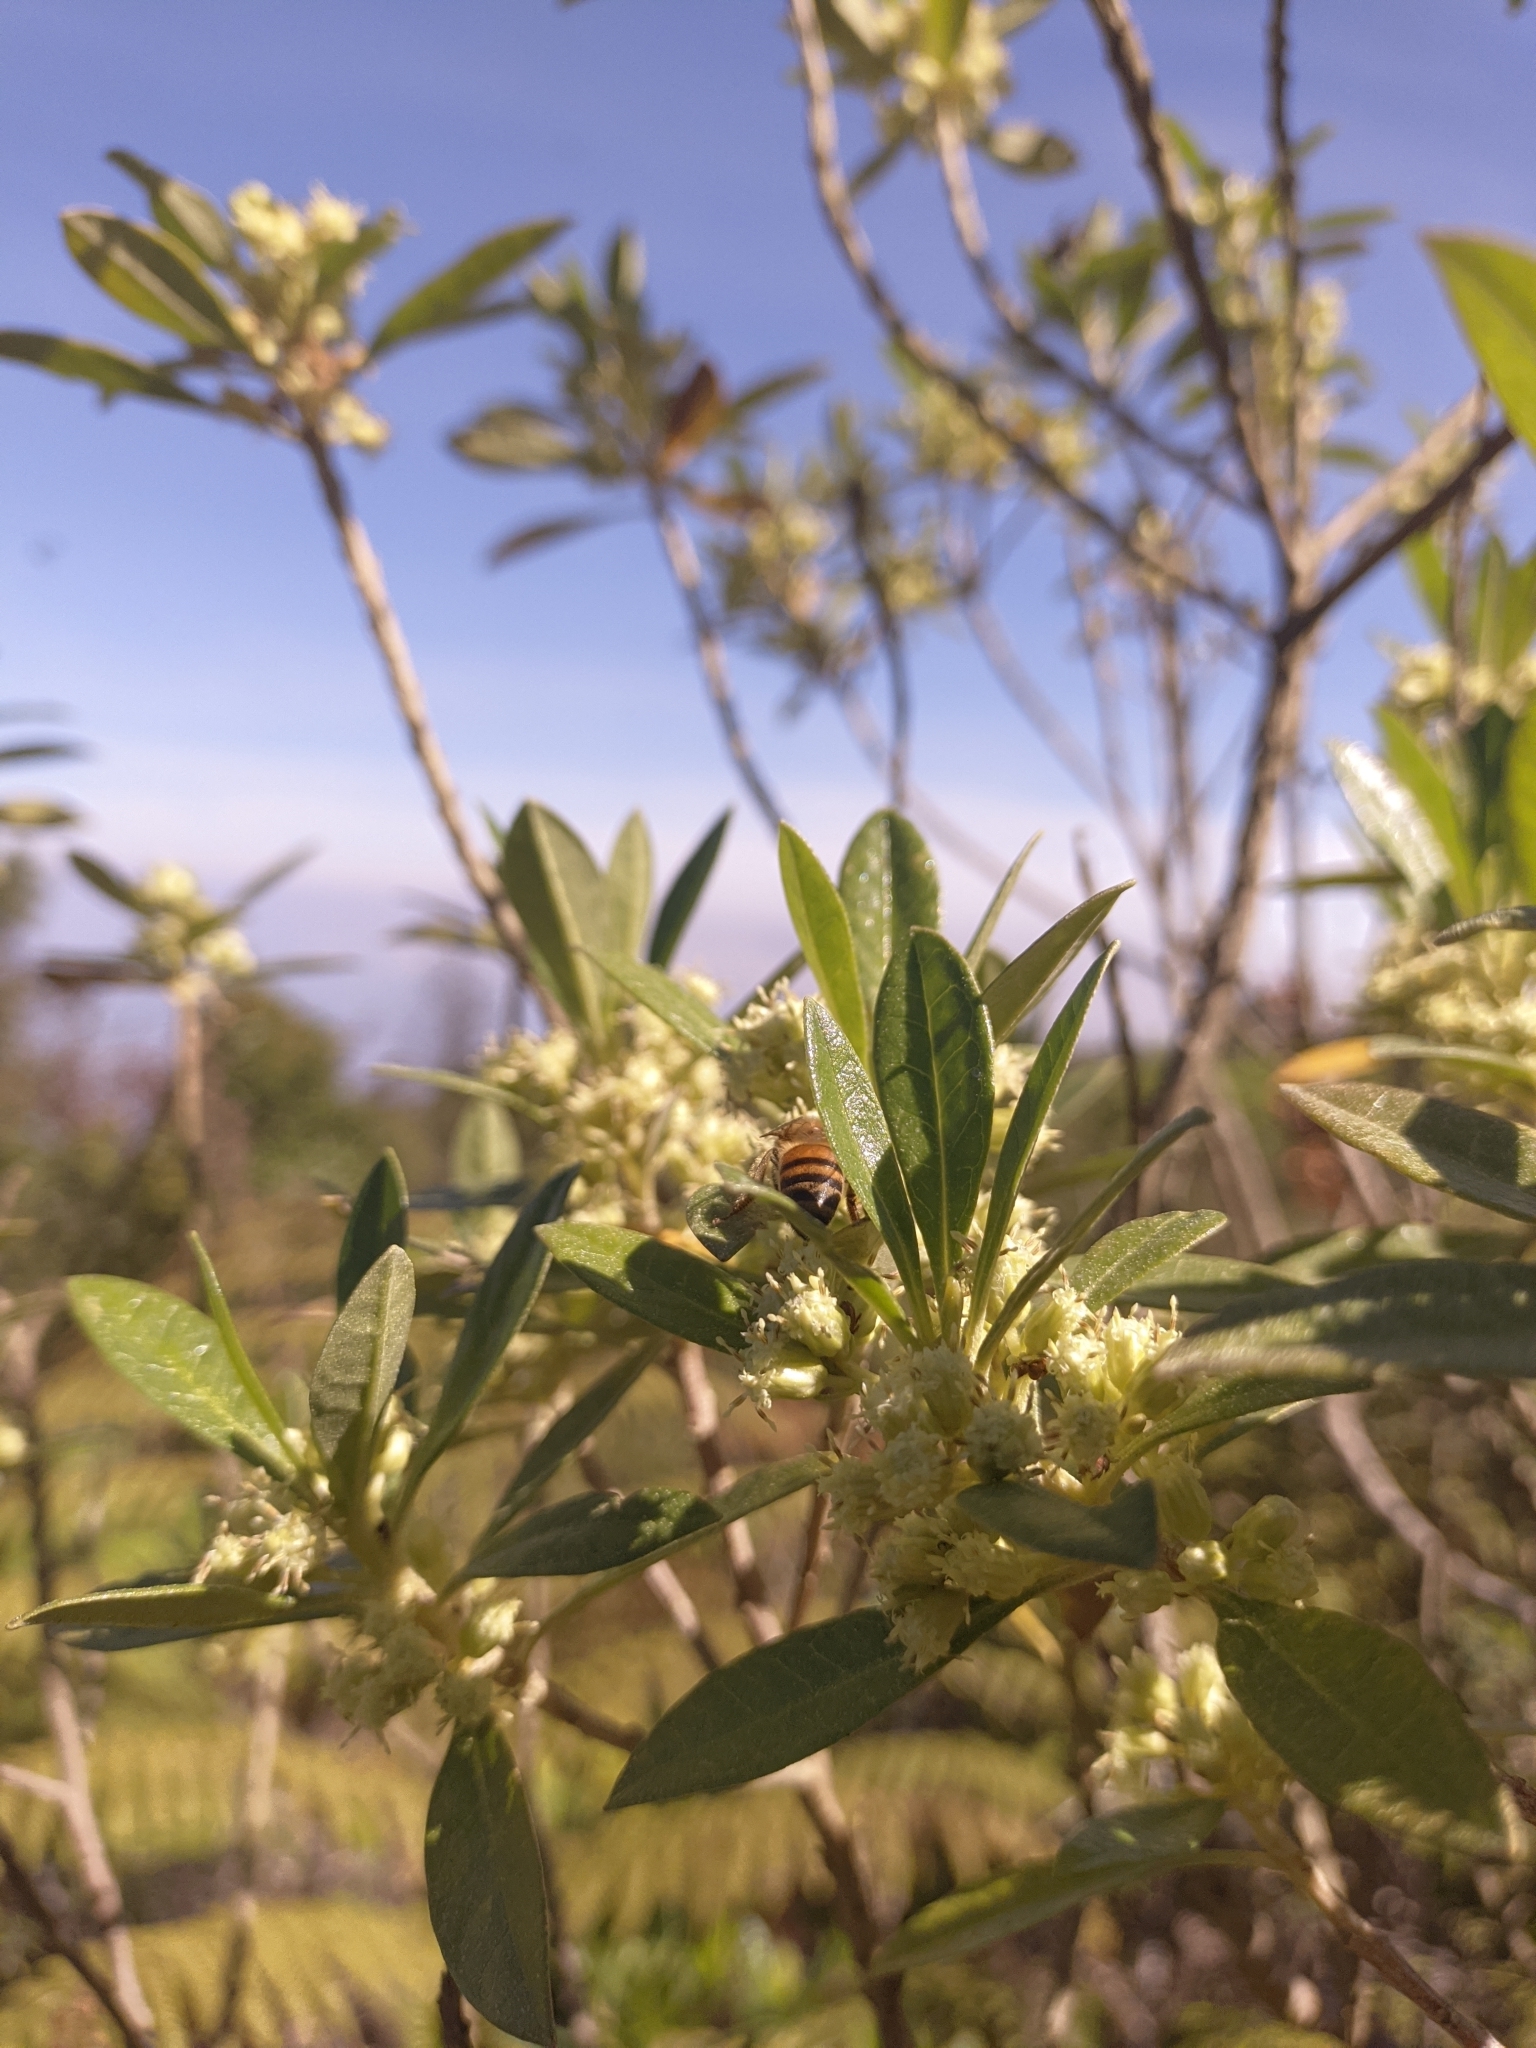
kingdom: Animalia
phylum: Arthropoda
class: Insecta
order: Hymenoptera
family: Apidae
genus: Apis
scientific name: Apis mellifera
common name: Honey bee
